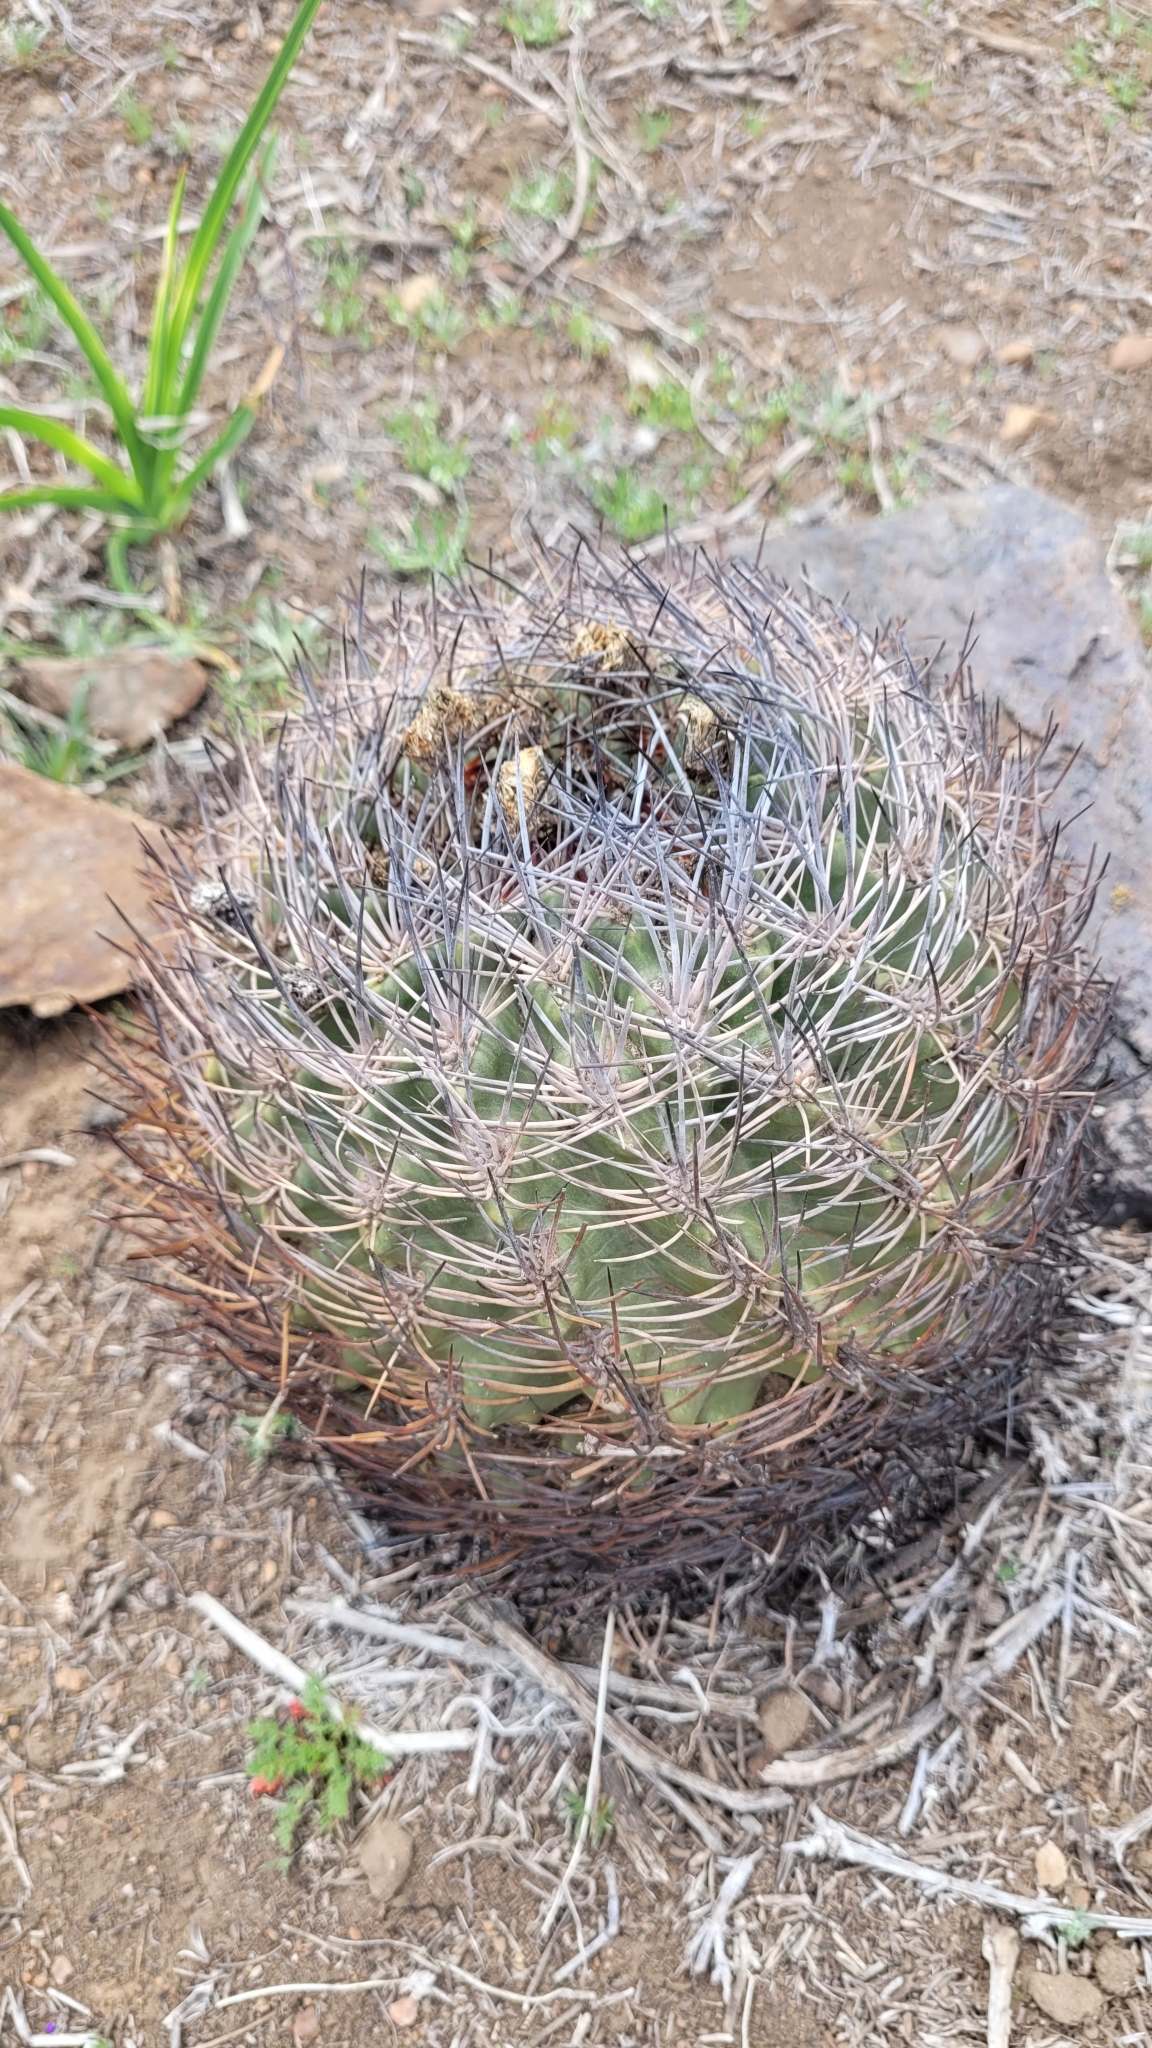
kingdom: Plantae
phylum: Tracheophyta
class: Magnoliopsida
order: Caryophyllales
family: Cactaceae
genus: Eriosyce
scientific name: Eriosyce curvispina
